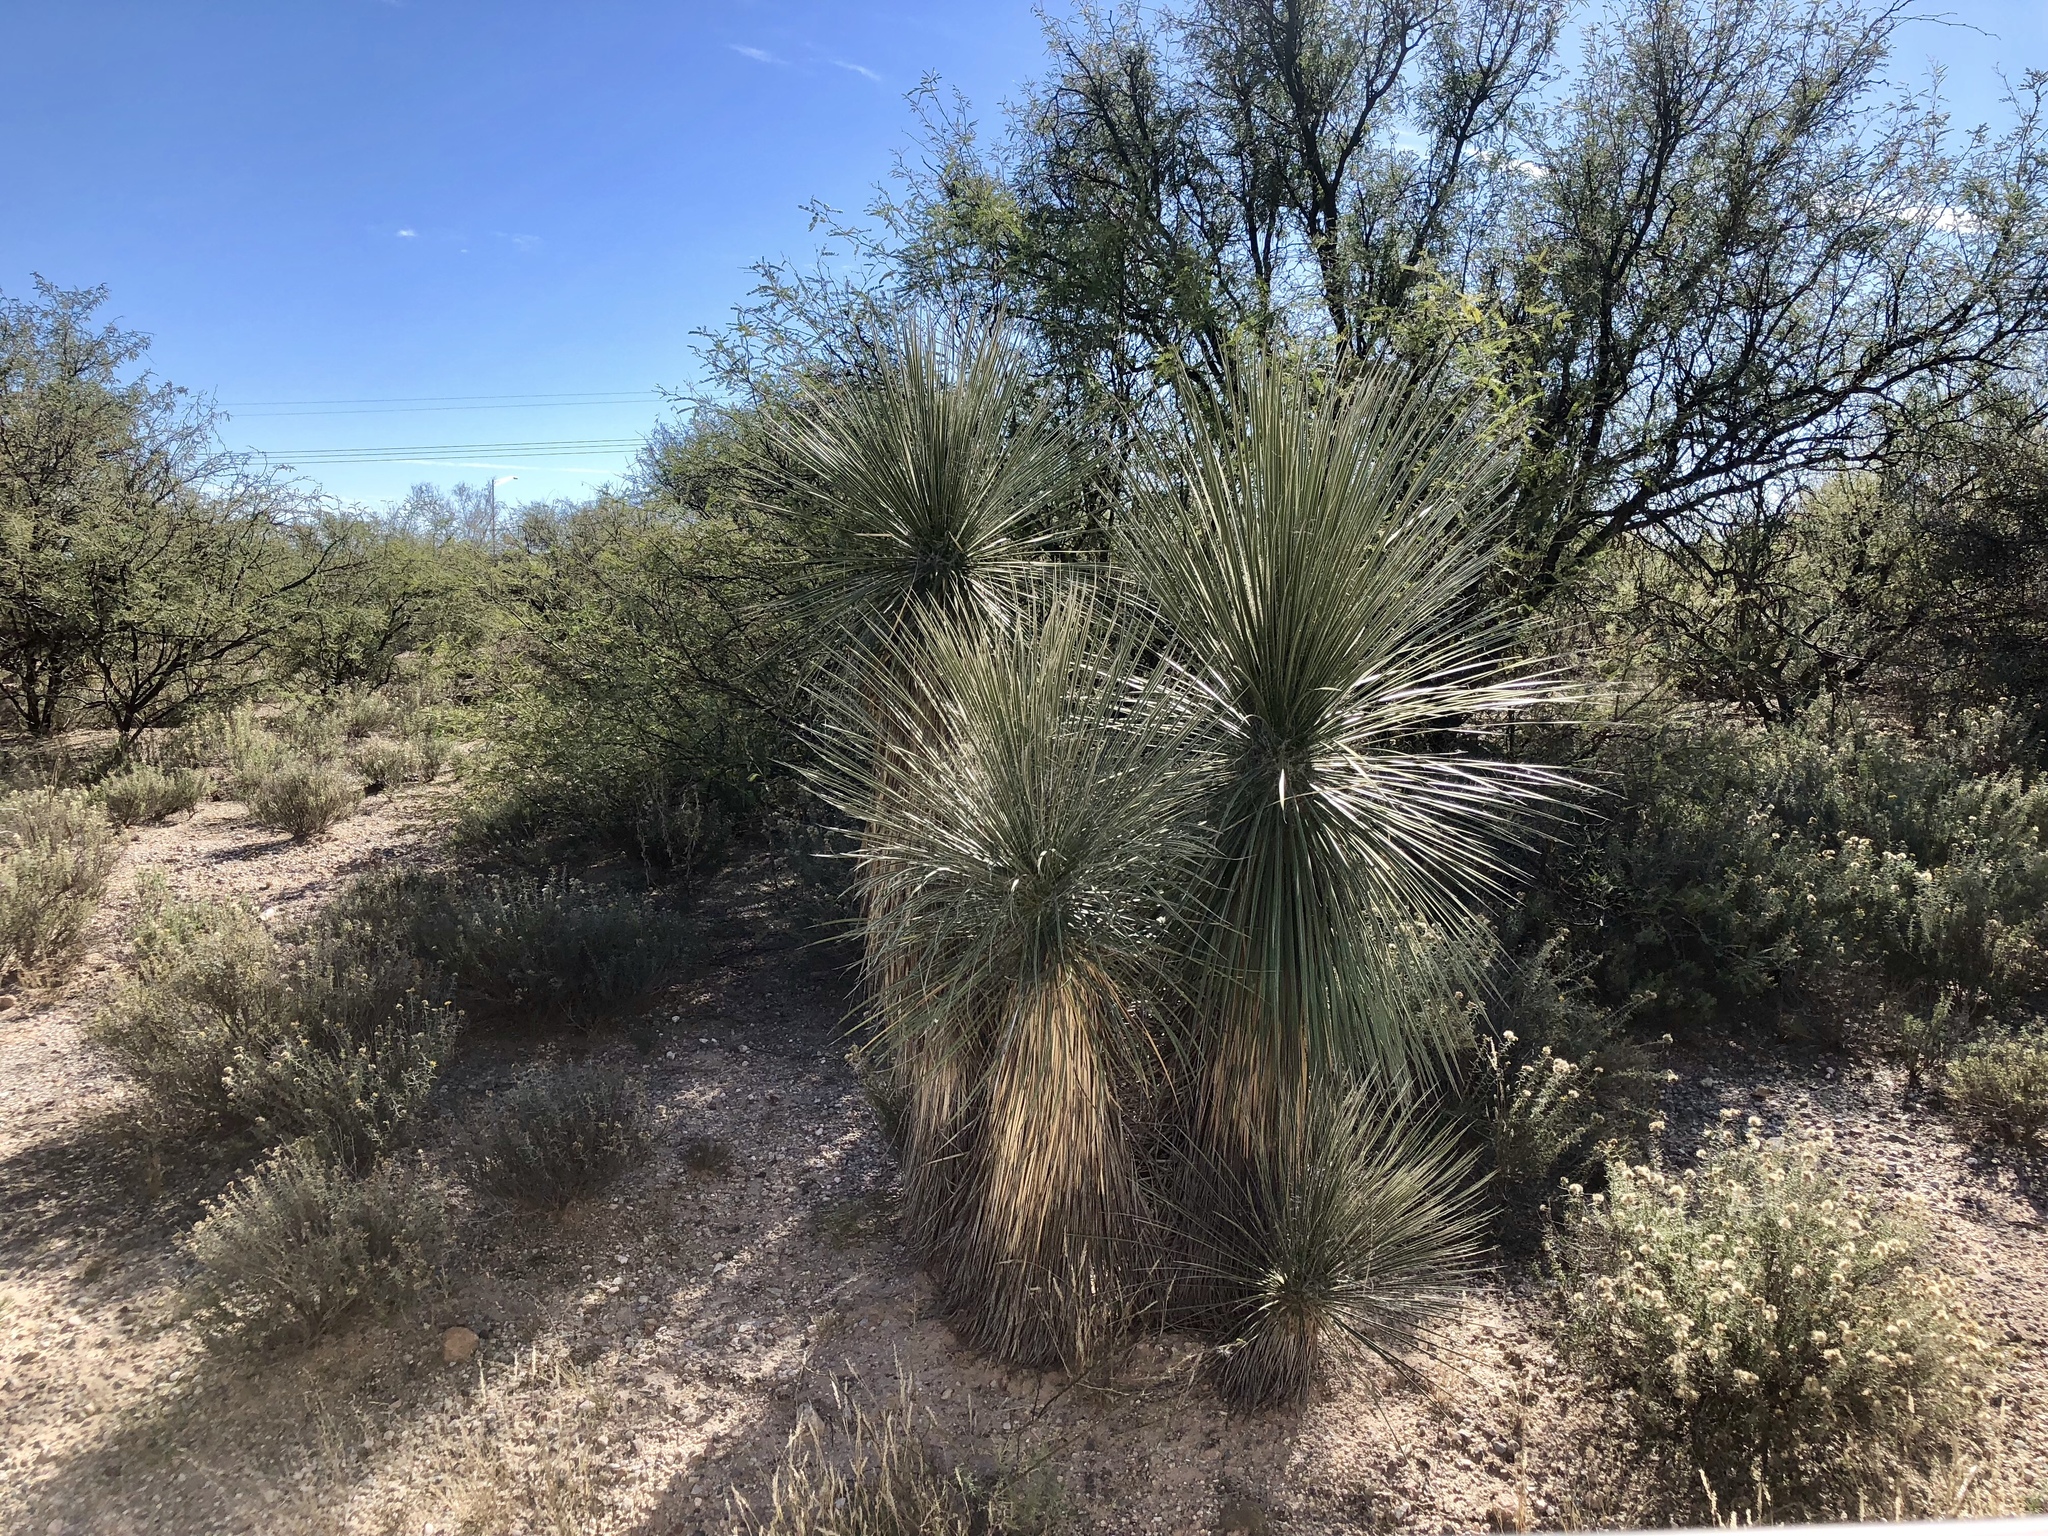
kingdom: Plantae
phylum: Tracheophyta
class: Liliopsida
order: Asparagales
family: Asparagaceae
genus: Yucca
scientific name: Yucca elata
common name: Palmella
